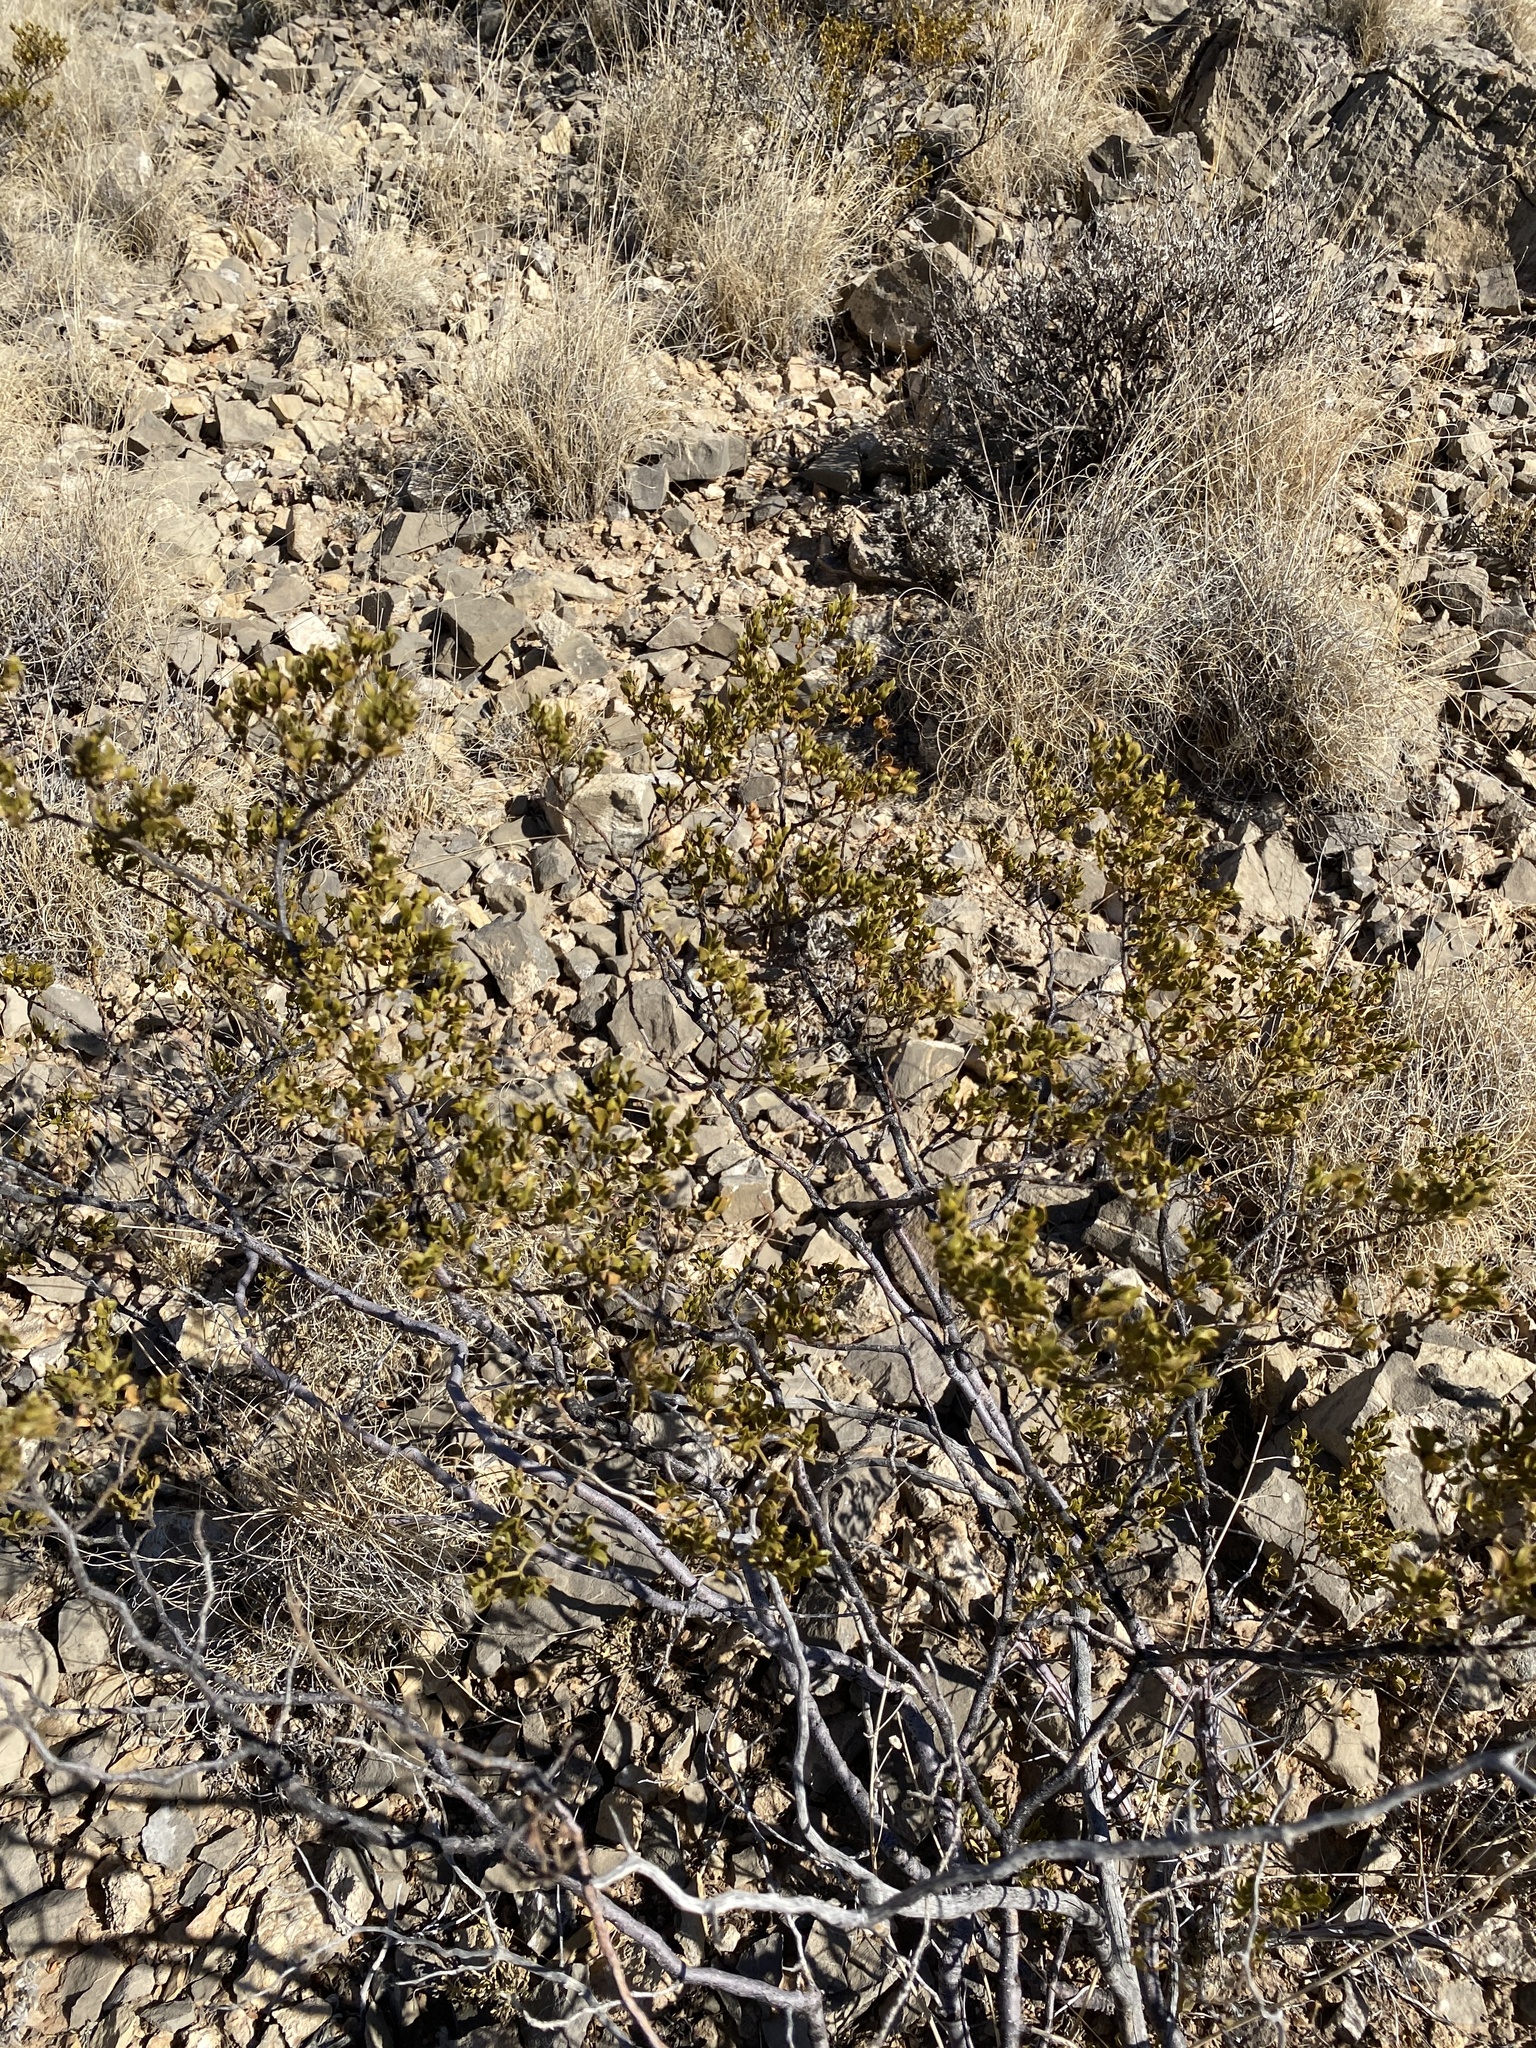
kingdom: Plantae
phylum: Tracheophyta
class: Magnoliopsida
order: Zygophyllales
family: Zygophyllaceae
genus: Larrea
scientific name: Larrea tridentata
